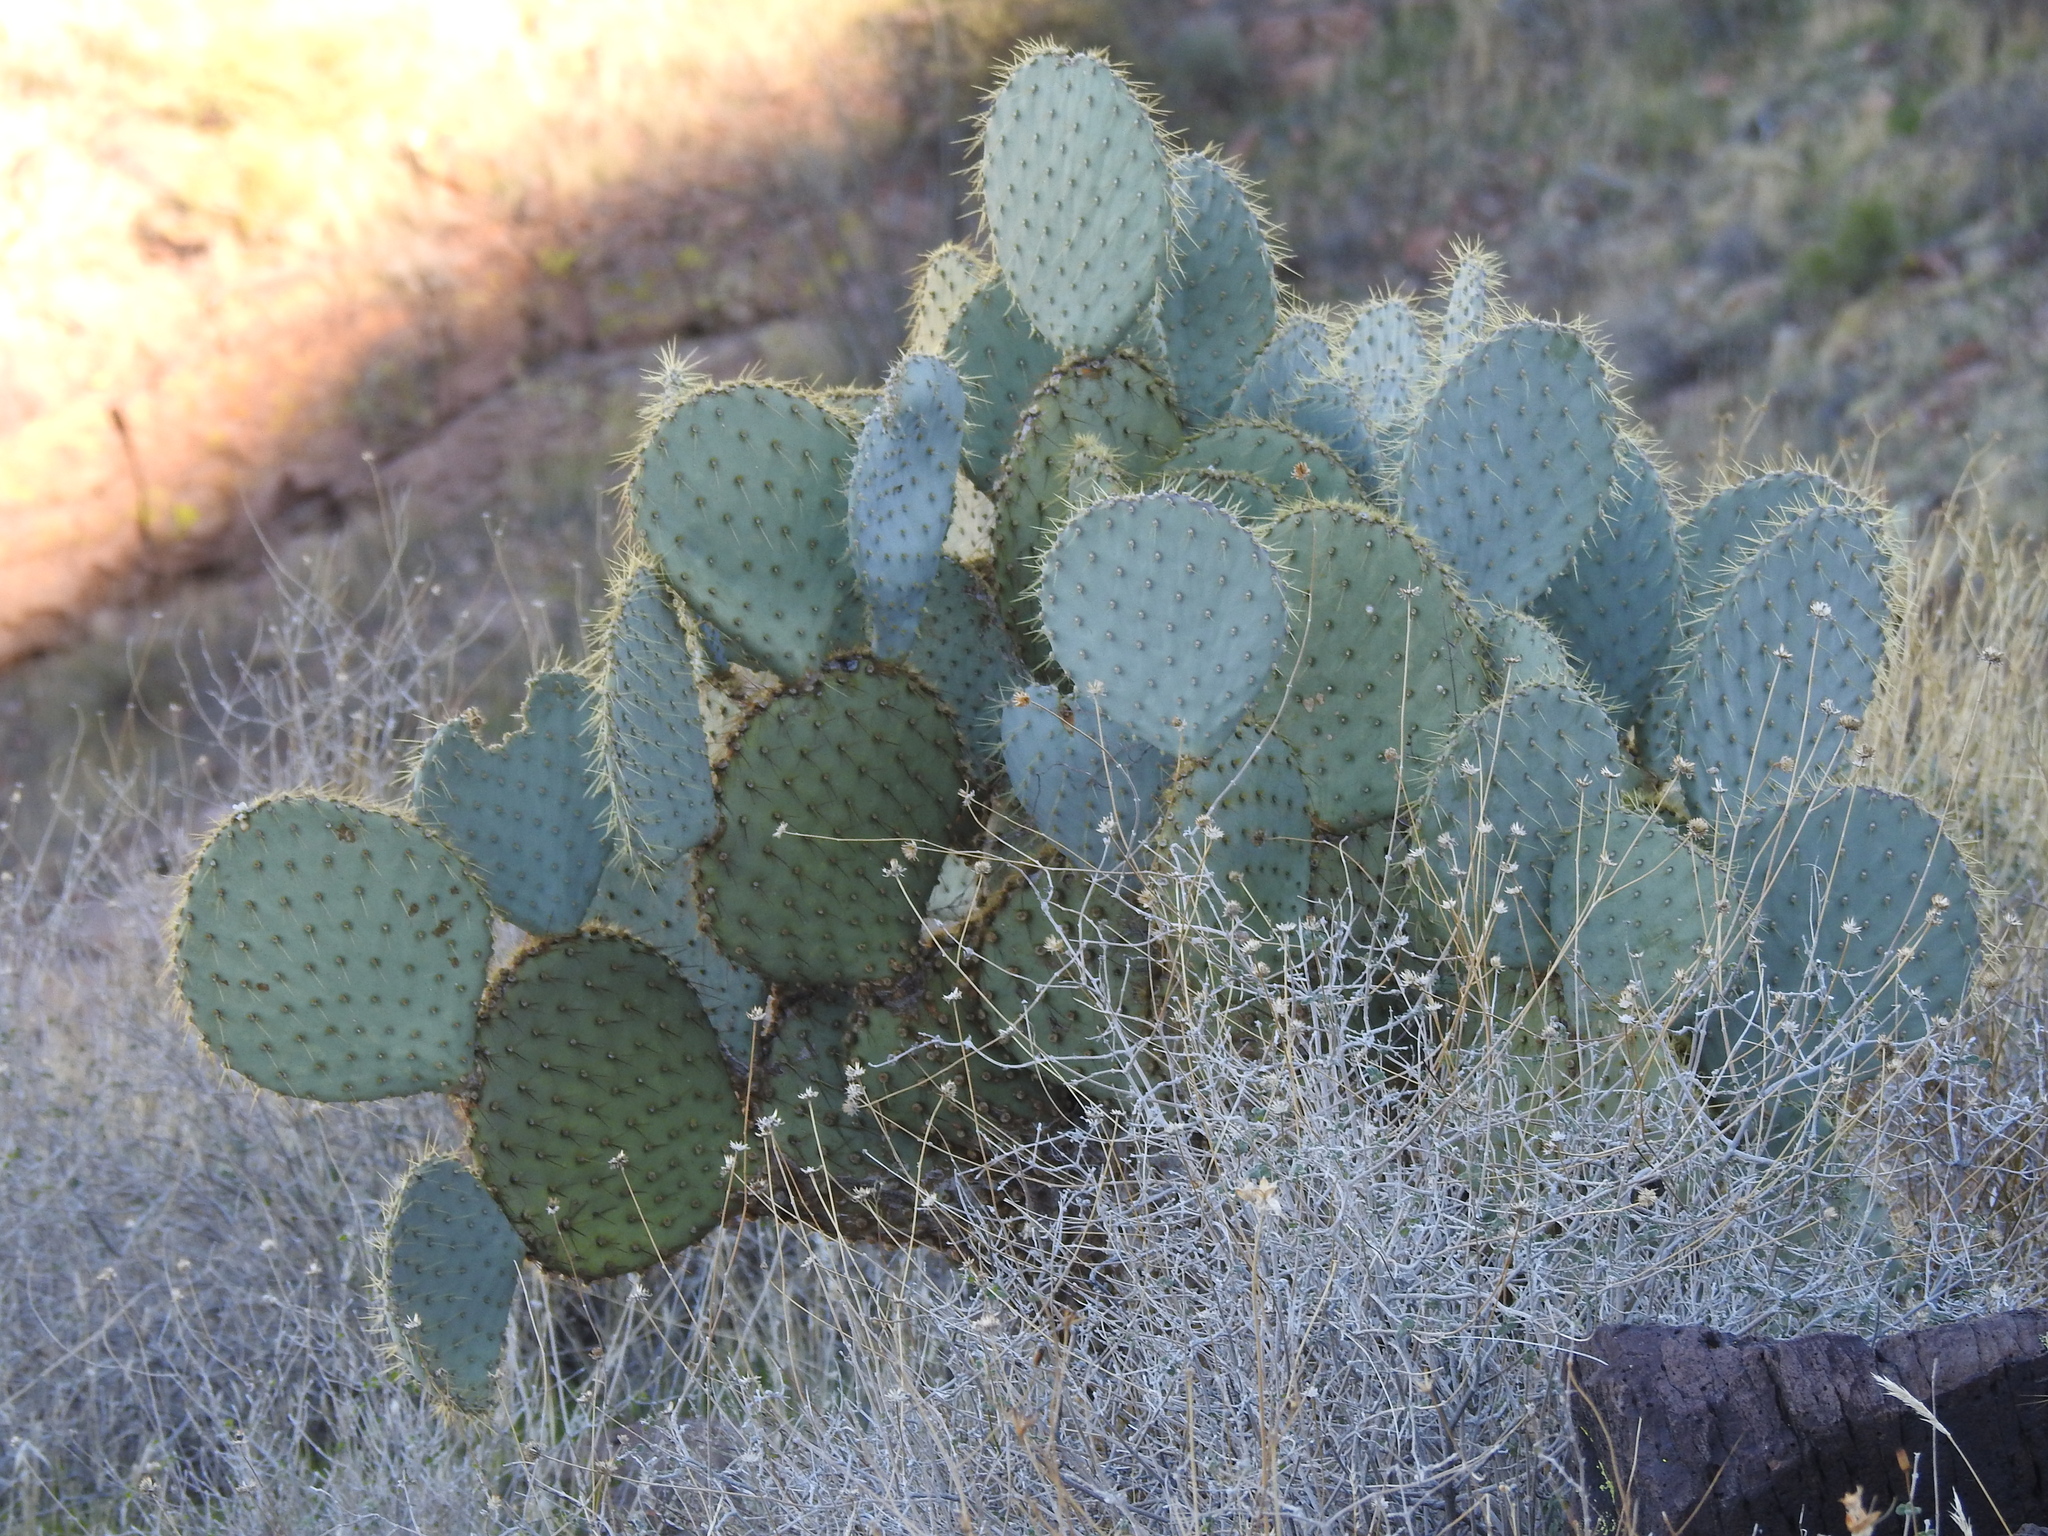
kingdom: Plantae
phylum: Tracheophyta
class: Magnoliopsida
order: Caryophyllales
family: Cactaceae
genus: Opuntia
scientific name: Opuntia chlorotica
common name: Dollar-joint prickly-pear
